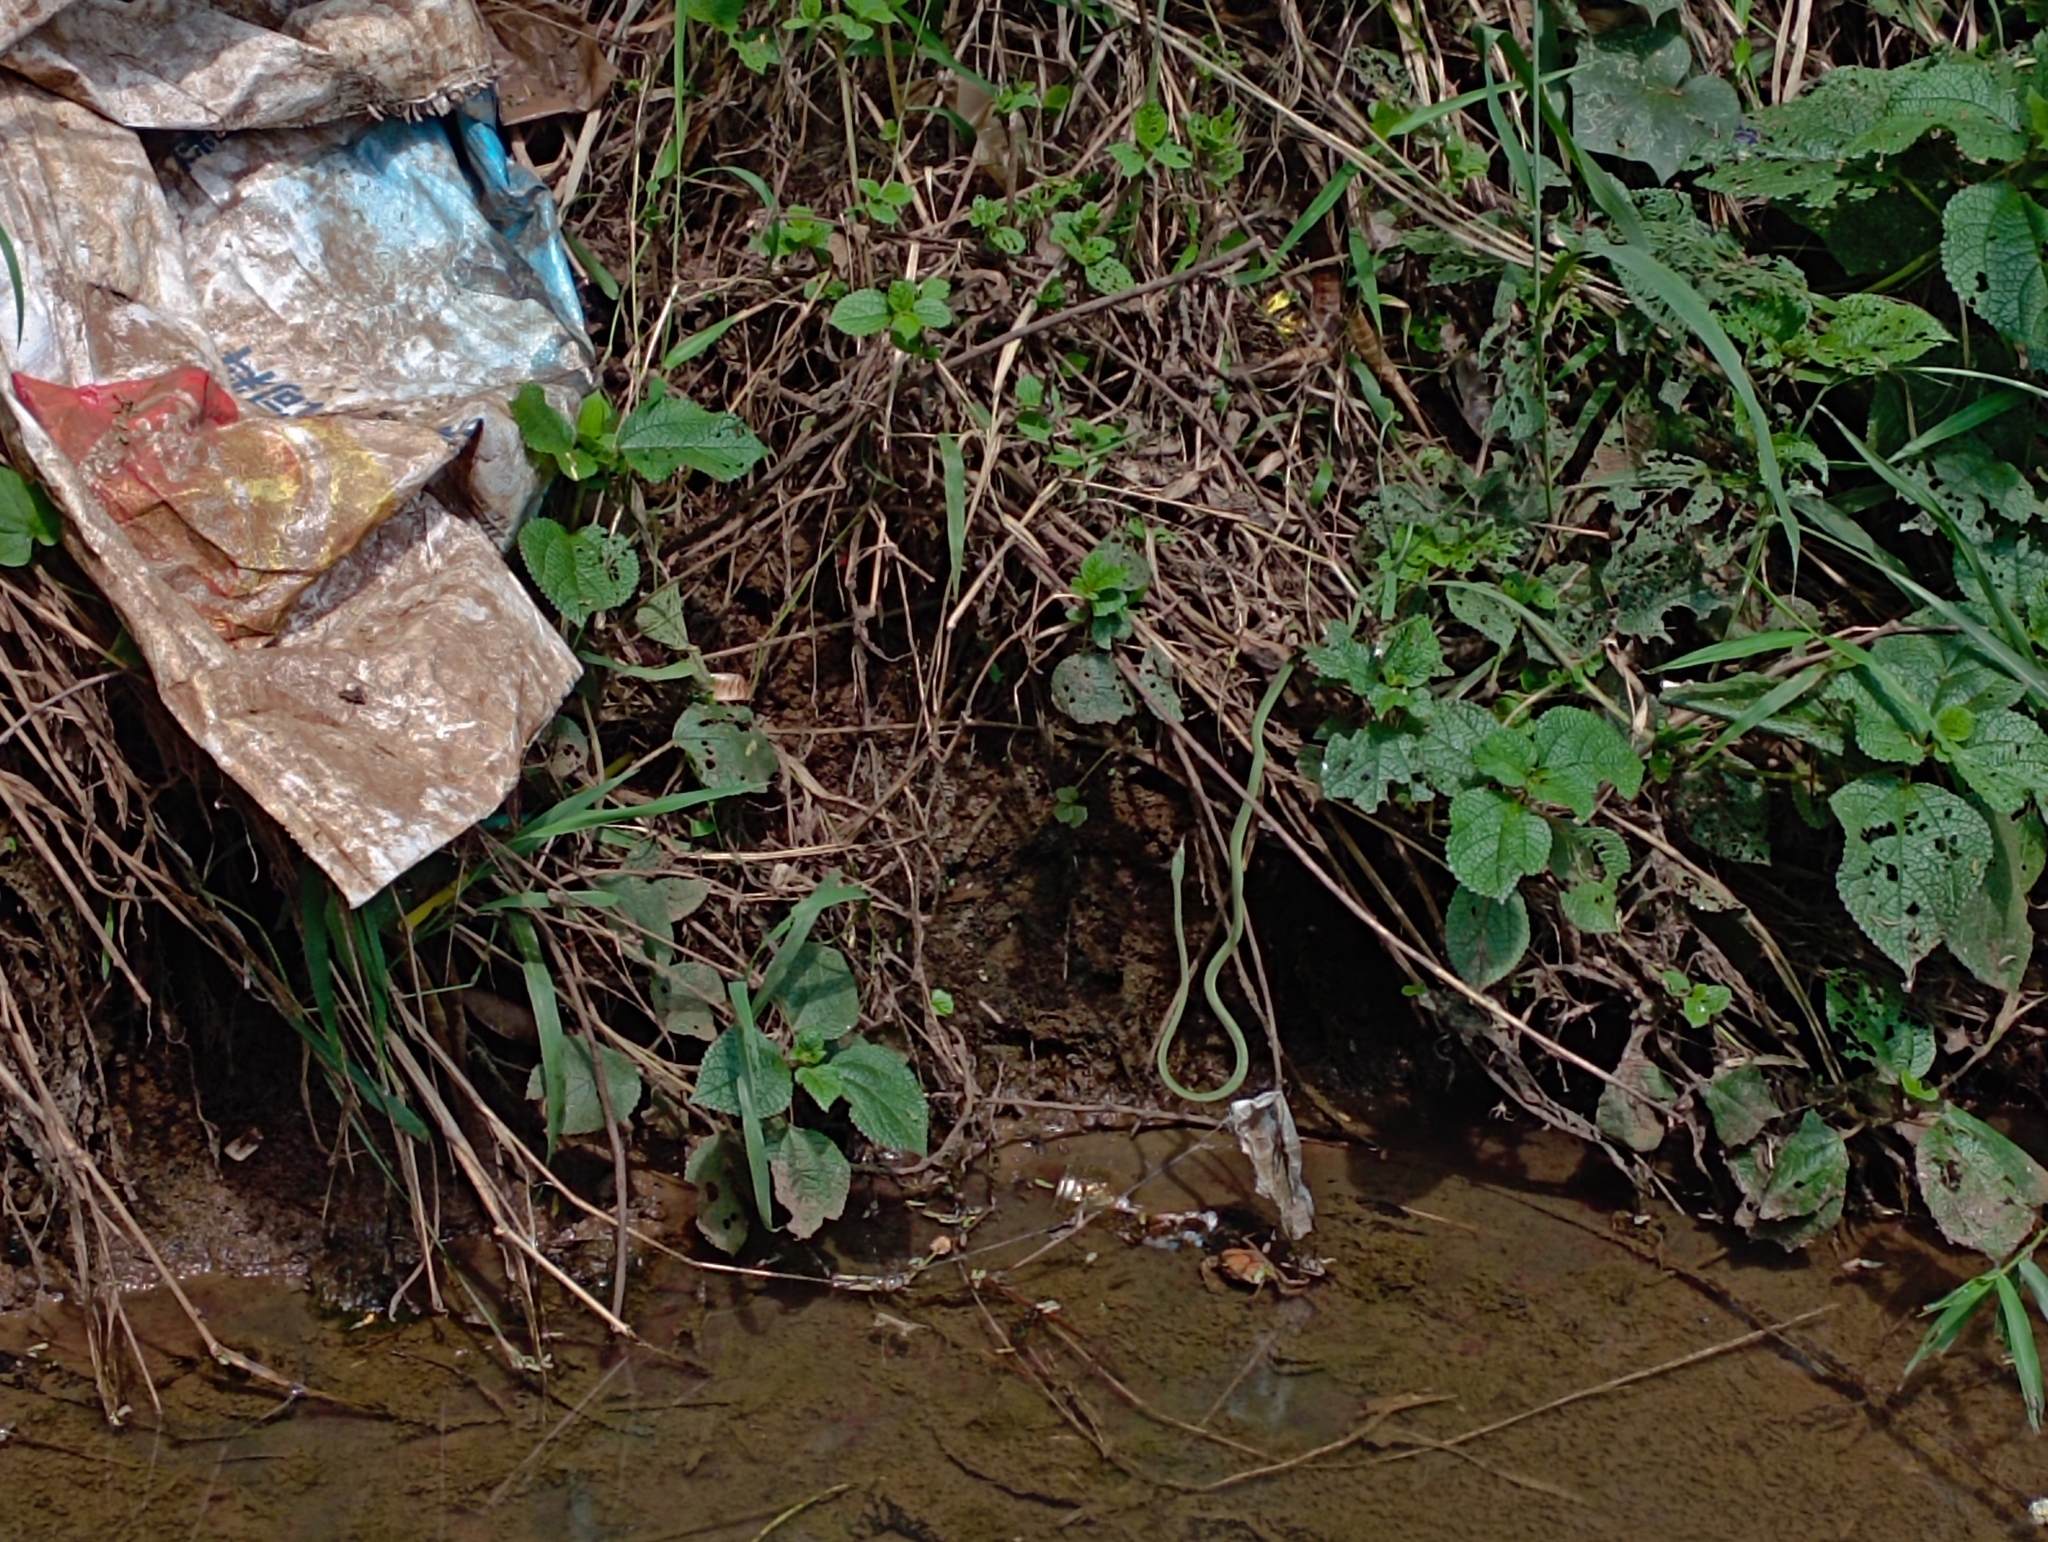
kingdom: Animalia
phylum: Chordata
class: Squamata
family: Colubridae
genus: Ahaetulla
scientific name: Ahaetulla prasina
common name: Oriental whip snake
